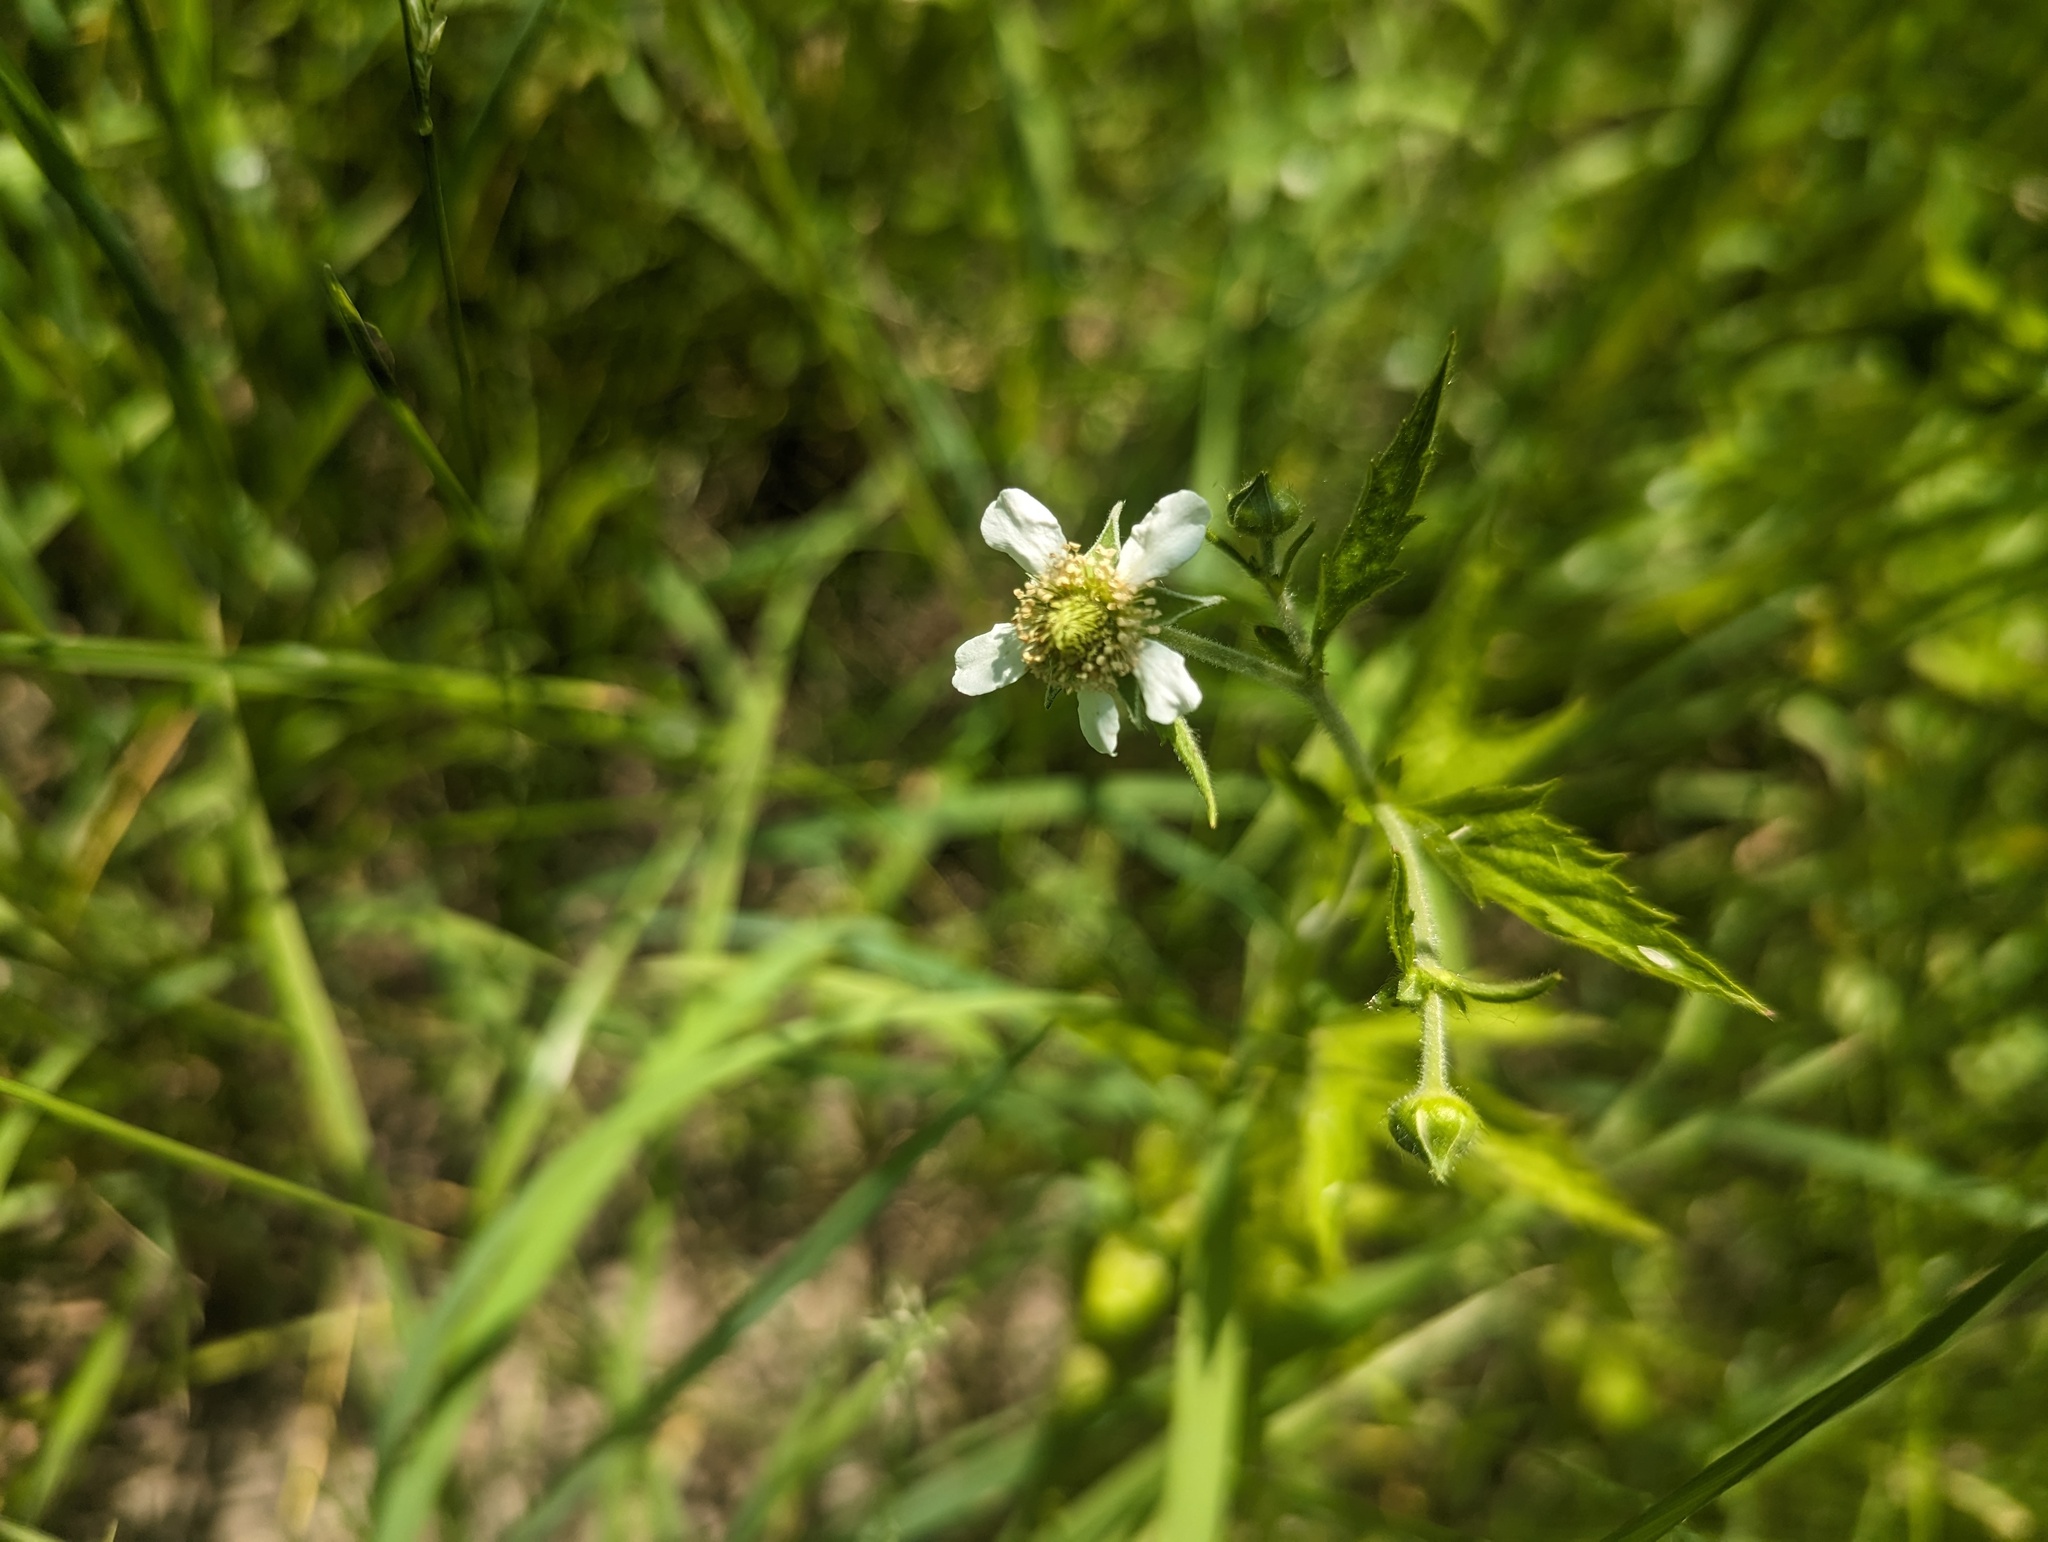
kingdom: Plantae
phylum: Tracheophyta
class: Magnoliopsida
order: Rosales
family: Rosaceae
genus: Geum
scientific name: Geum canadense
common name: White avens
